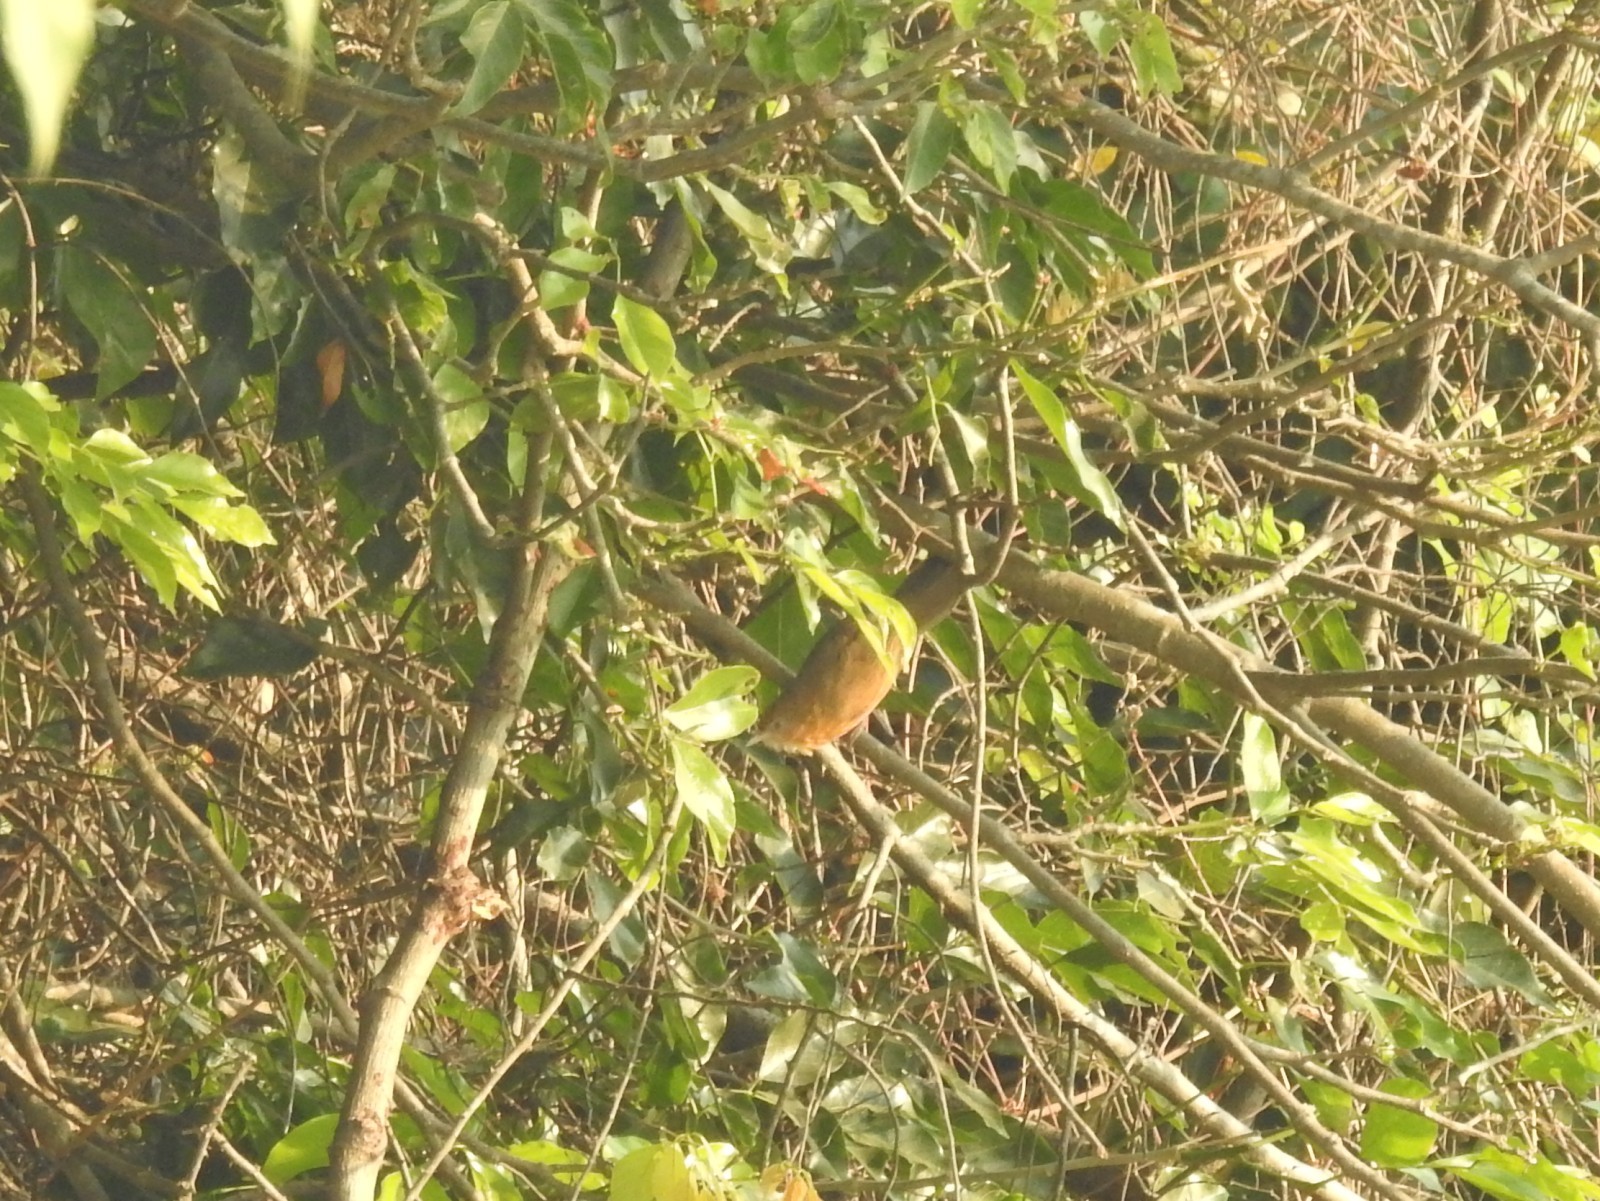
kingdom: Animalia
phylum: Chordata
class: Aves
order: Passeriformes
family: Timaliidae
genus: Dumetia
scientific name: Dumetia hyperythra
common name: Tawny-bellied babbler
